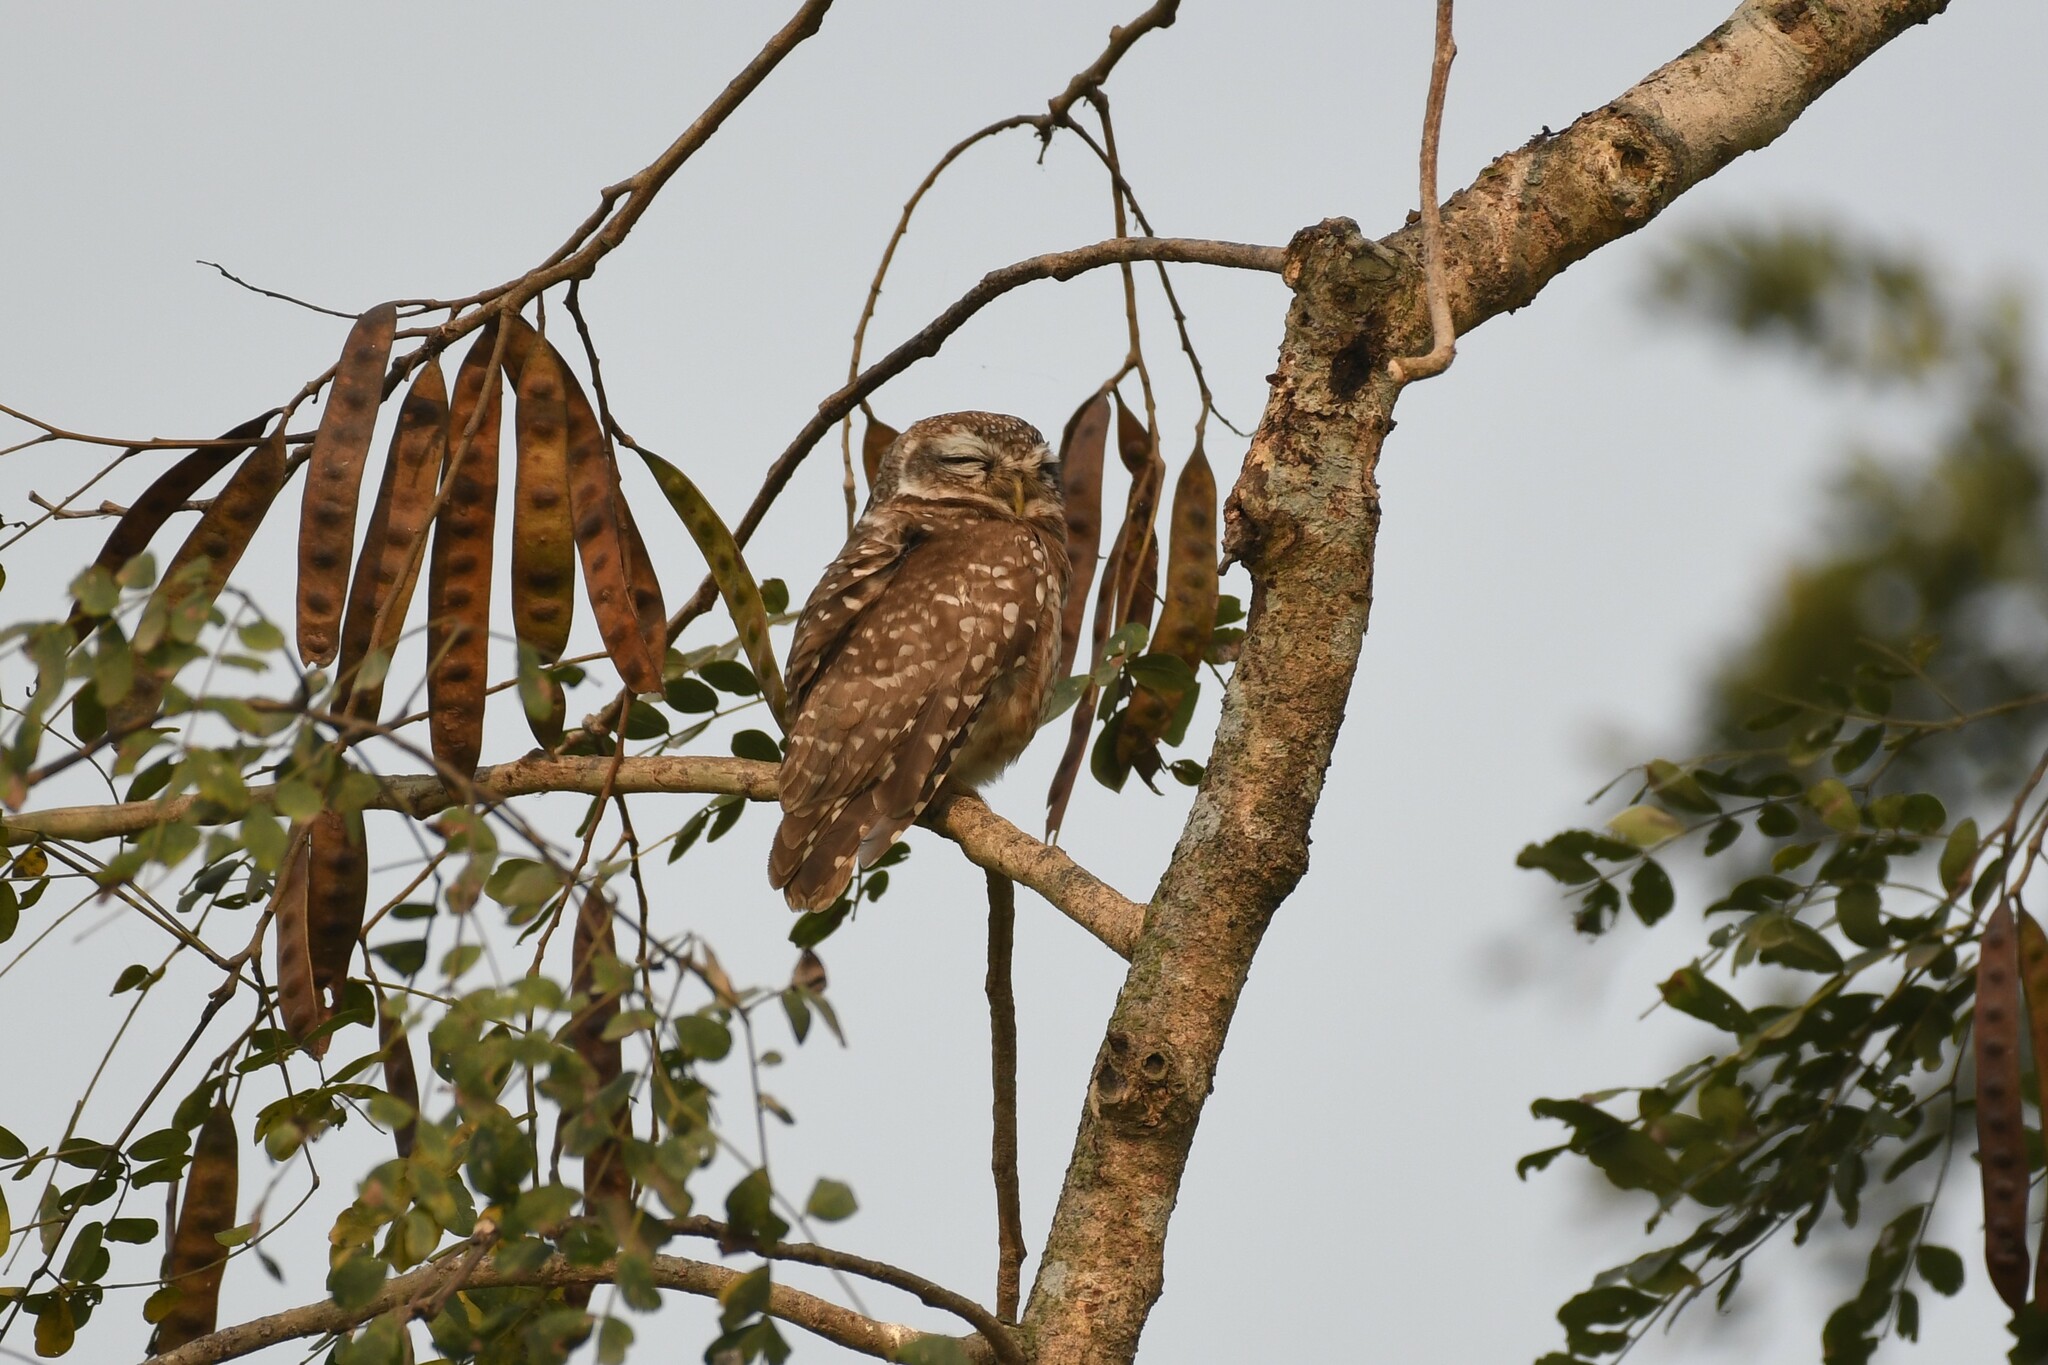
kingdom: Animalia
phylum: Chordata
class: Aves
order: Strigiformes
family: Strigidae
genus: Athene
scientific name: Athene brama
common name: Spotted owlet
